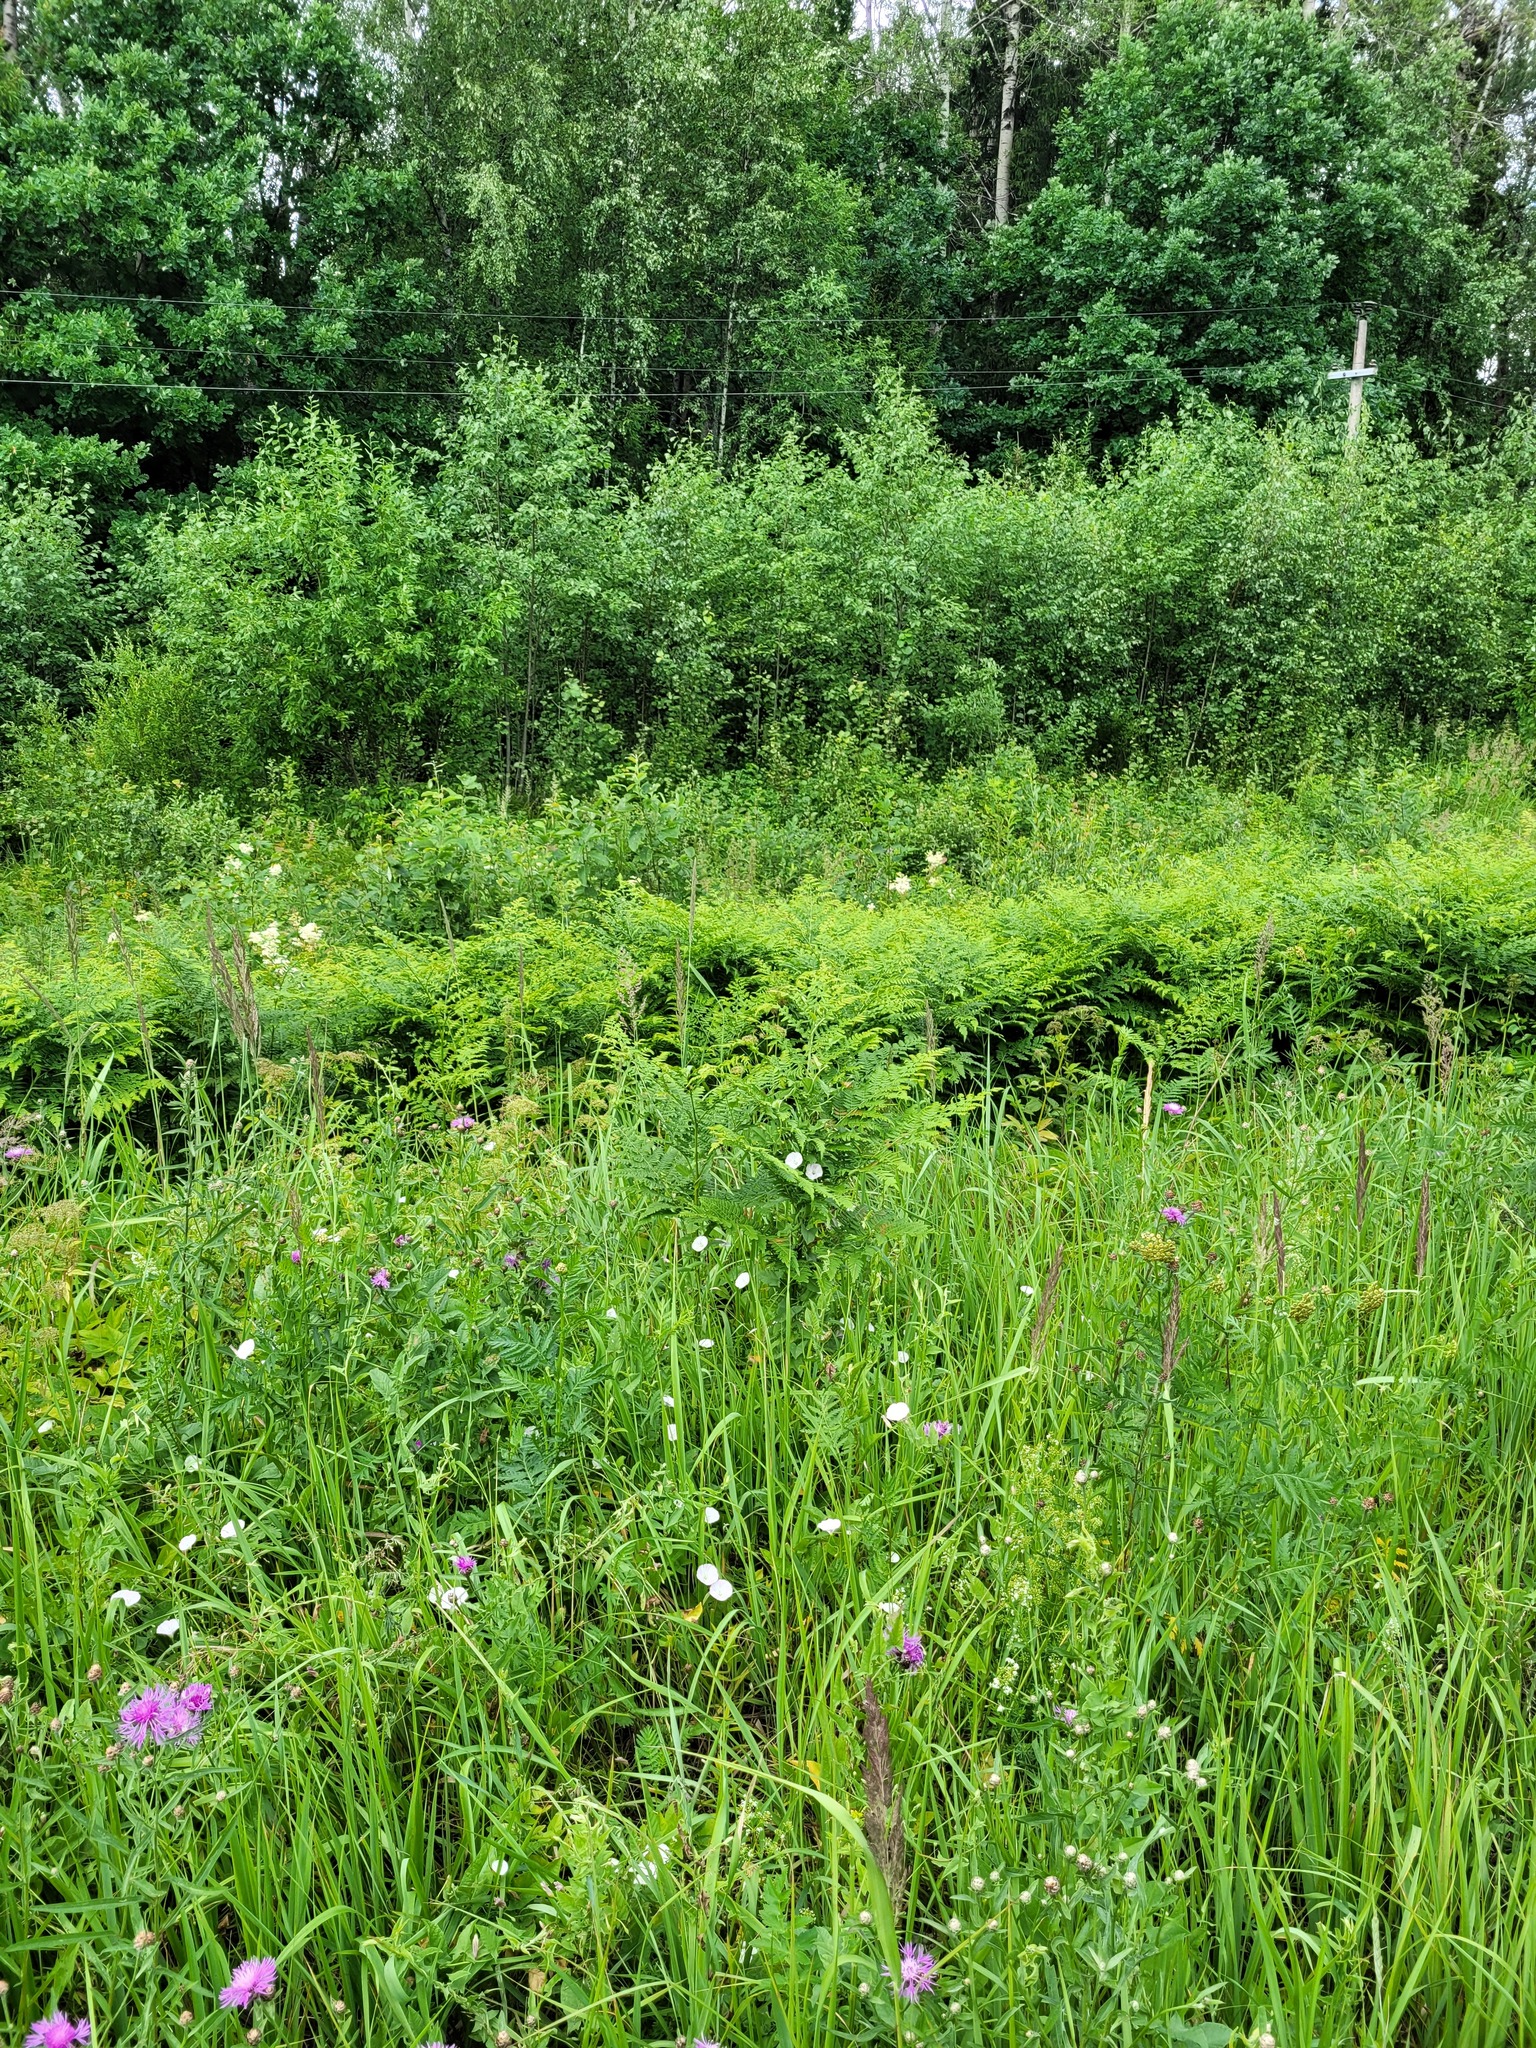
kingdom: Plantae
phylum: Tracheophyta
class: Polypodiopsida
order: Polypodiales
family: Dennstaedtiaceae
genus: Pteridium
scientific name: Pteridium aquilinum
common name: Bracken
